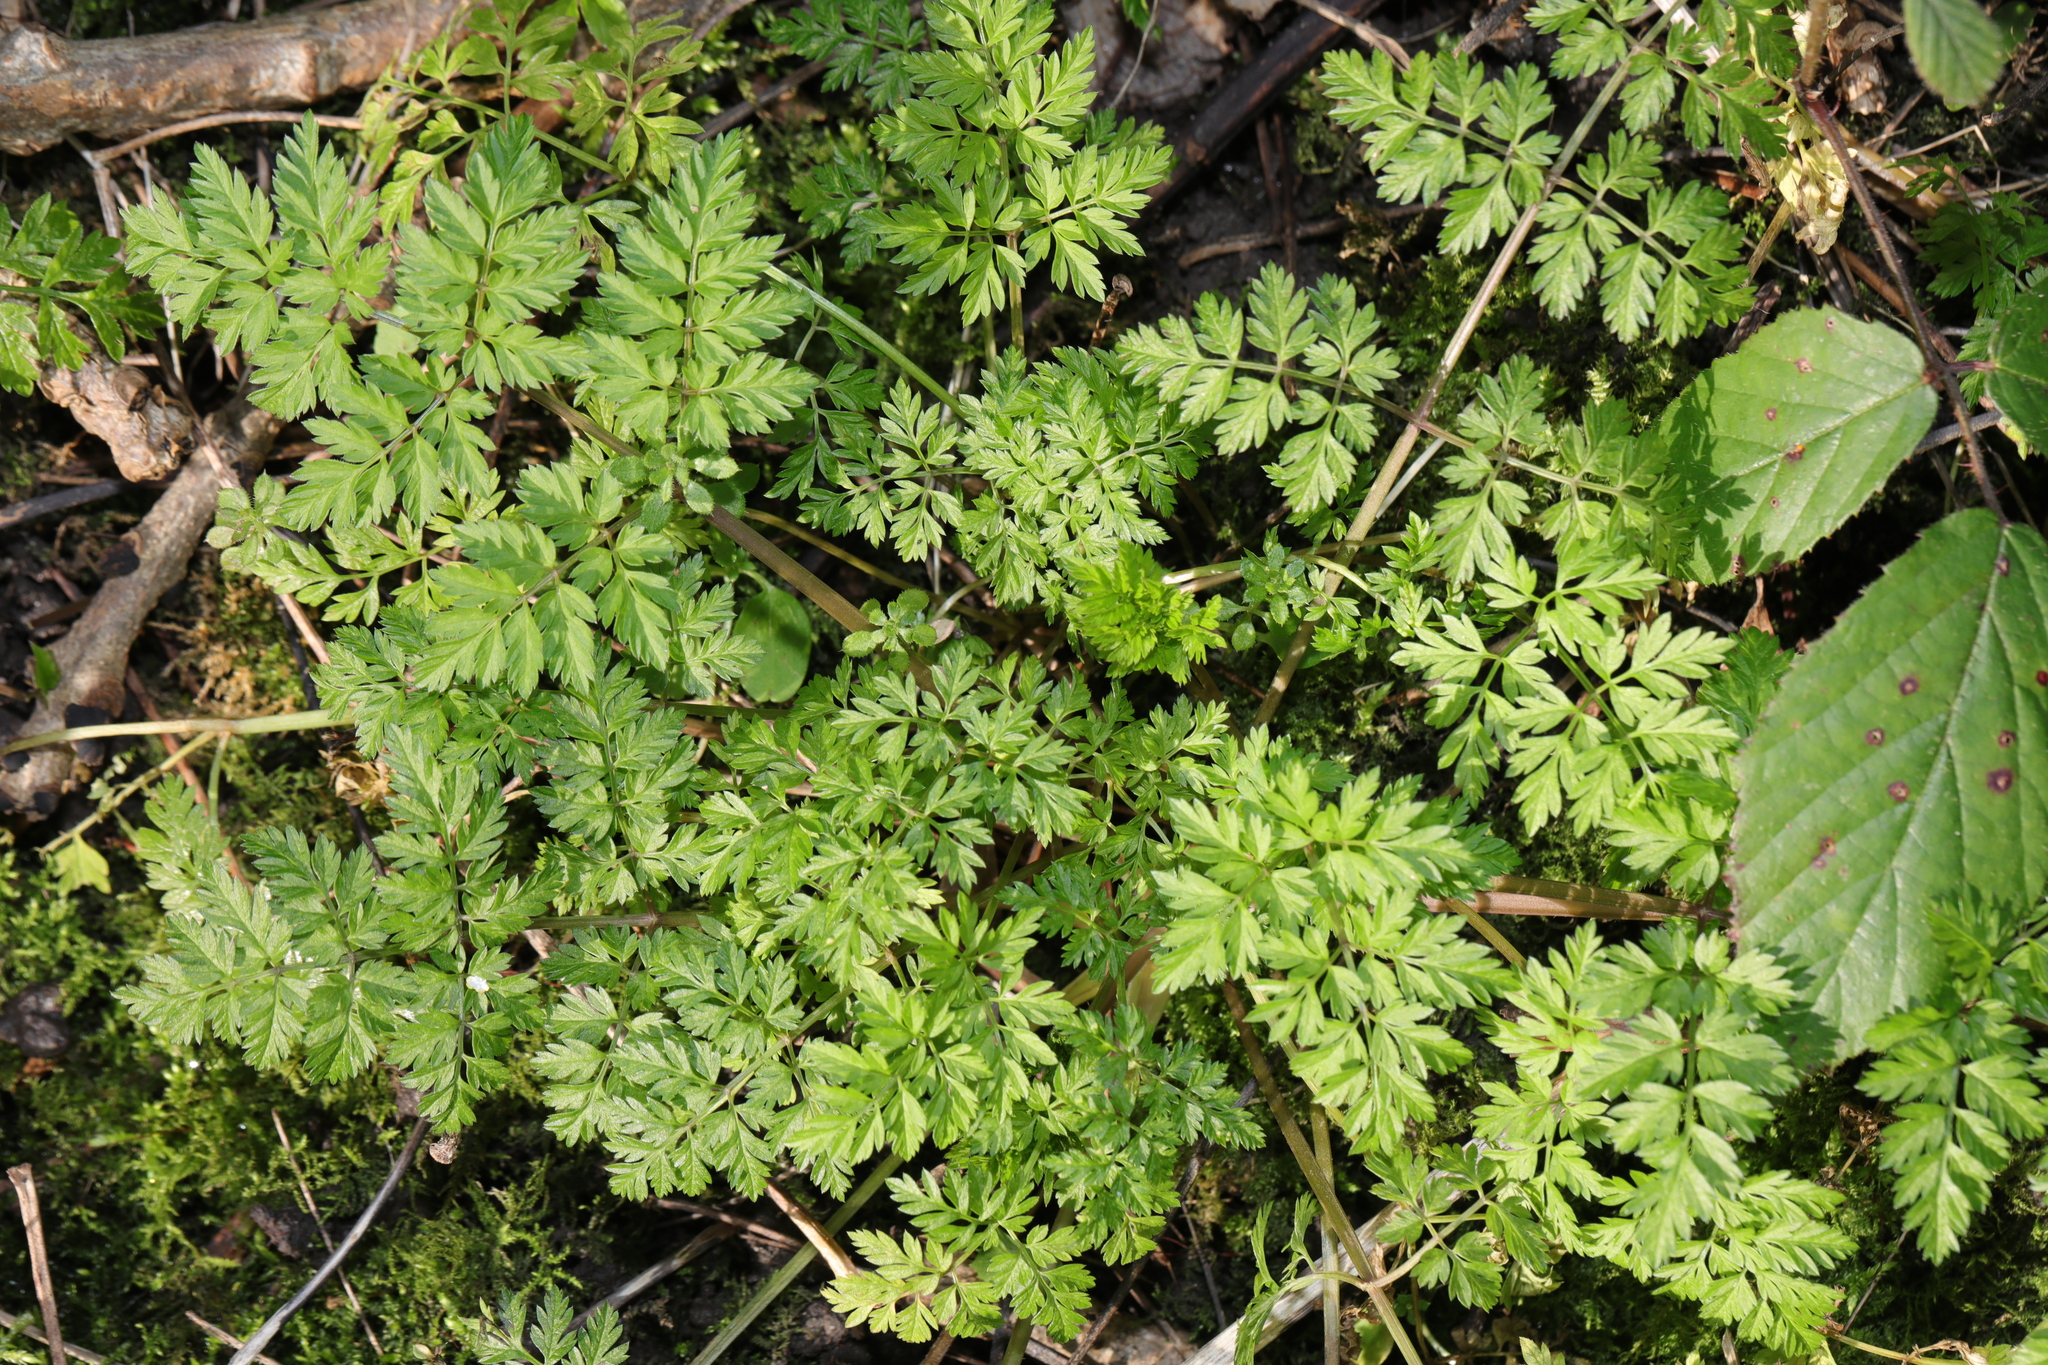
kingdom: Plantae
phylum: Tracheophyta
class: Magnoliopsida
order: Apiales
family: Apiaceae
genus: Anthriscus
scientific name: Anthriscus sylvestris
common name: Cow parsley
